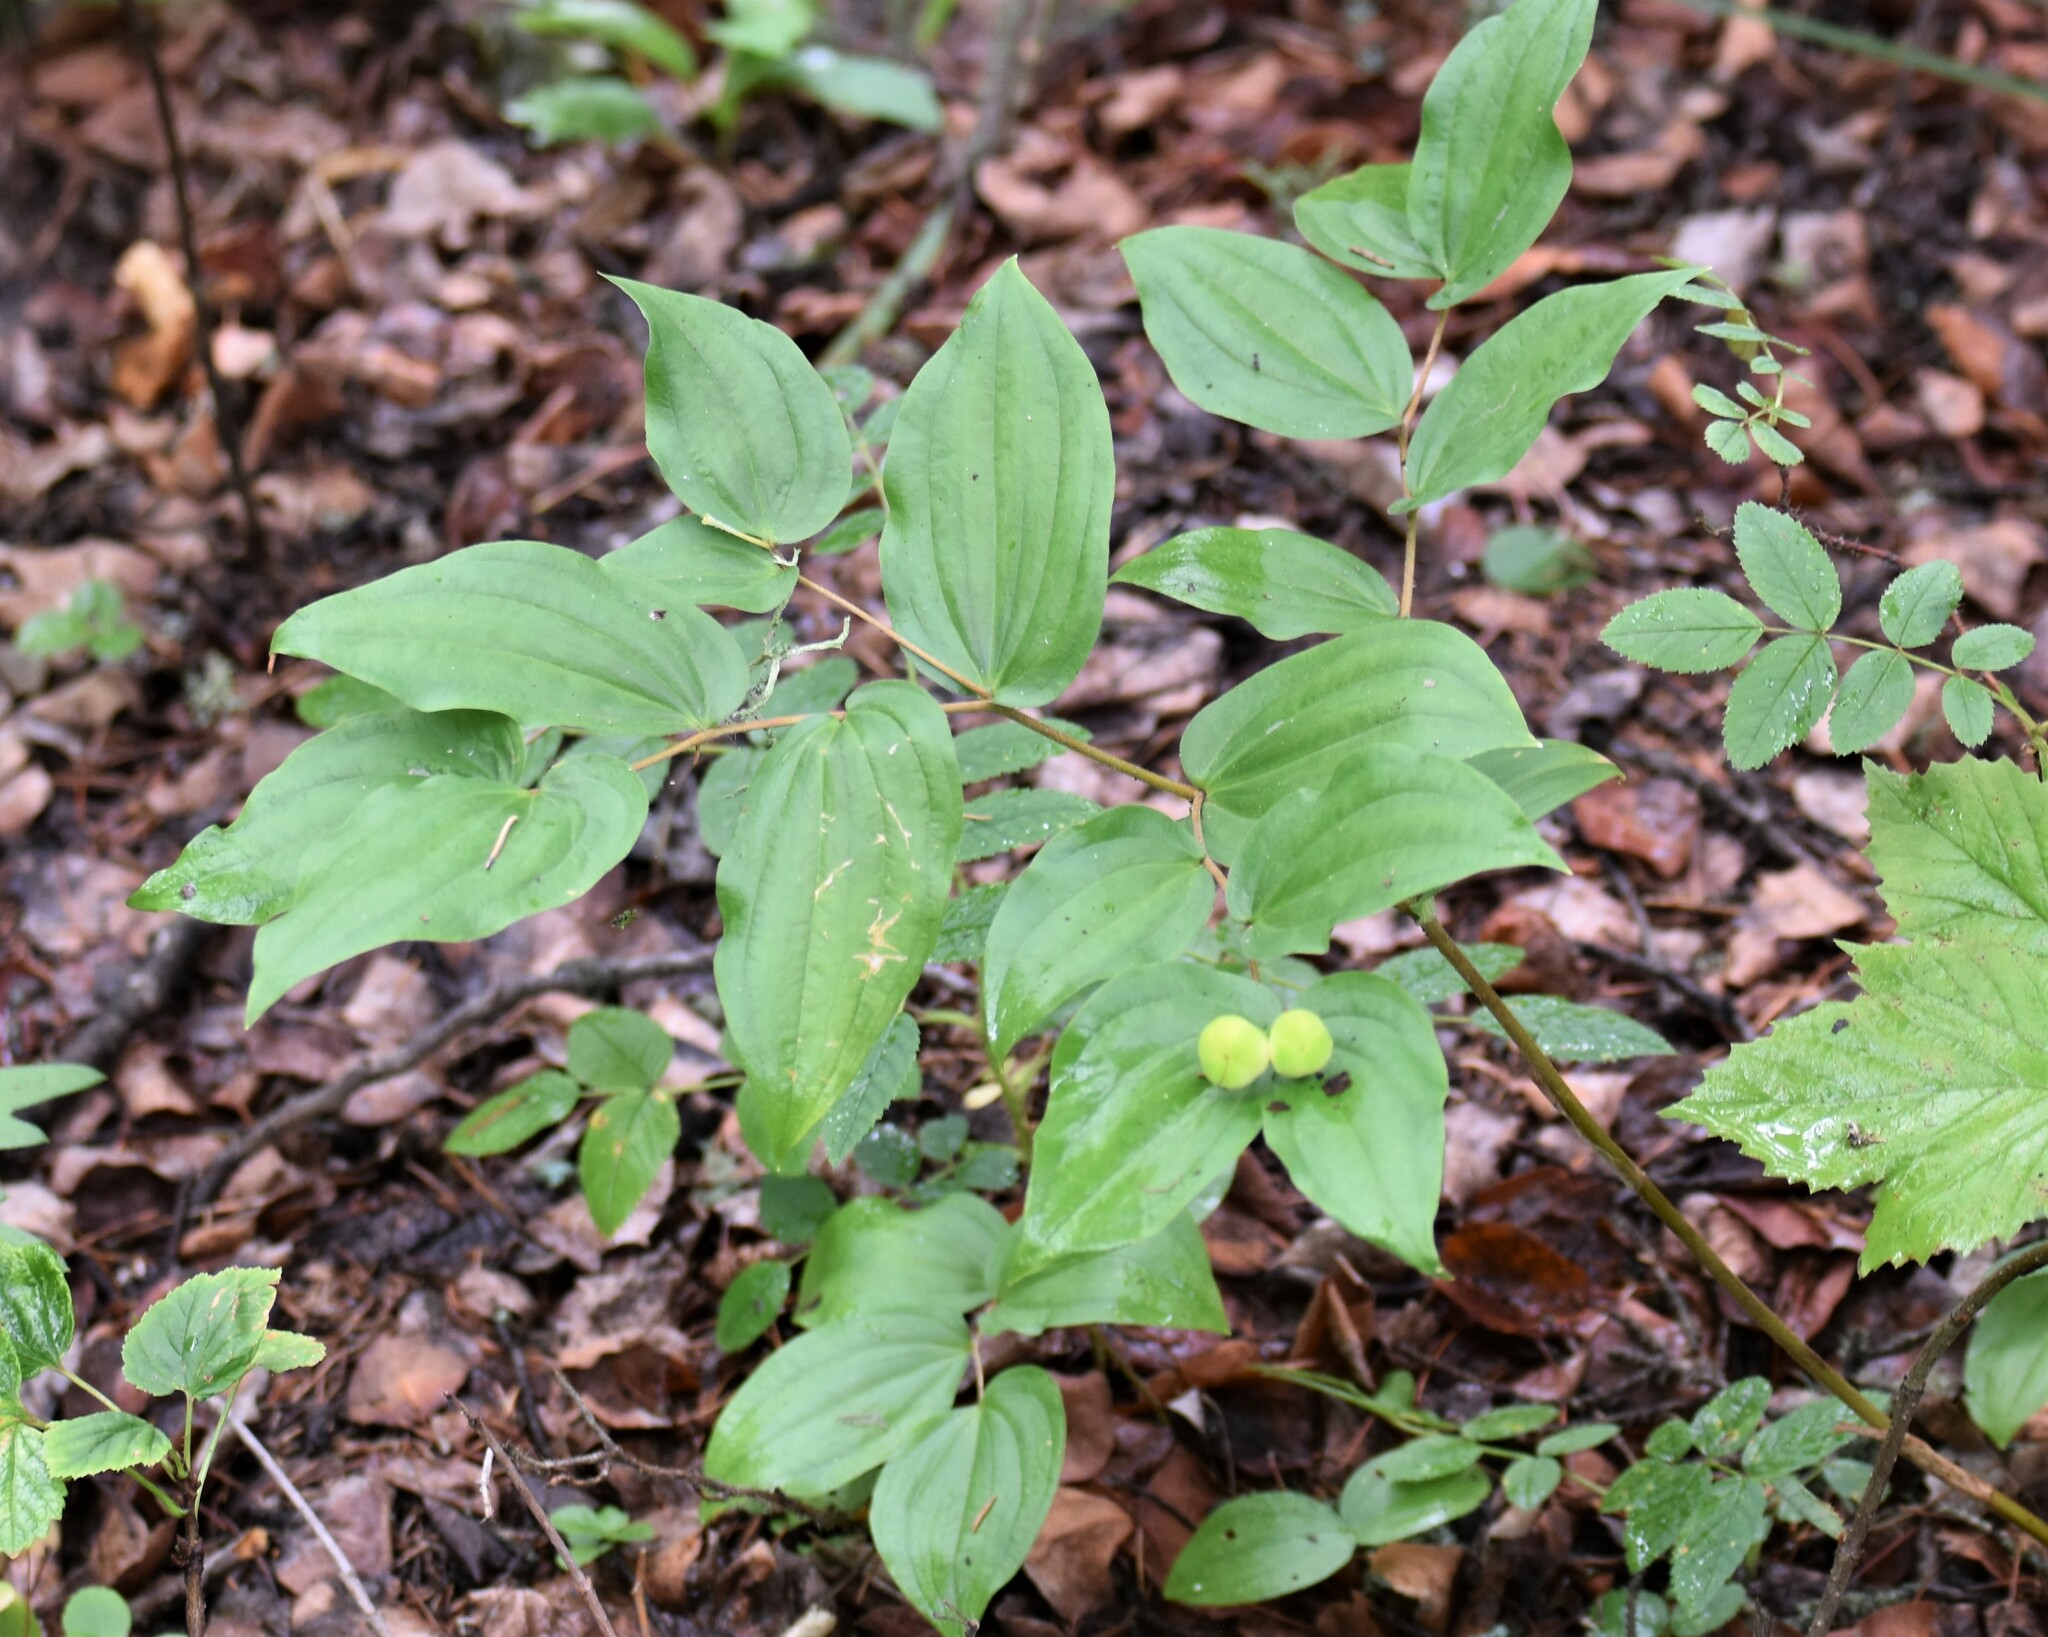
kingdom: Plantae
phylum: Tracheophyta
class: Liliopsida
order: Liliales
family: Liliaceae
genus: Prosartes
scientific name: Prosartes trachycarpa
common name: Rough-fruit fairy-bells
